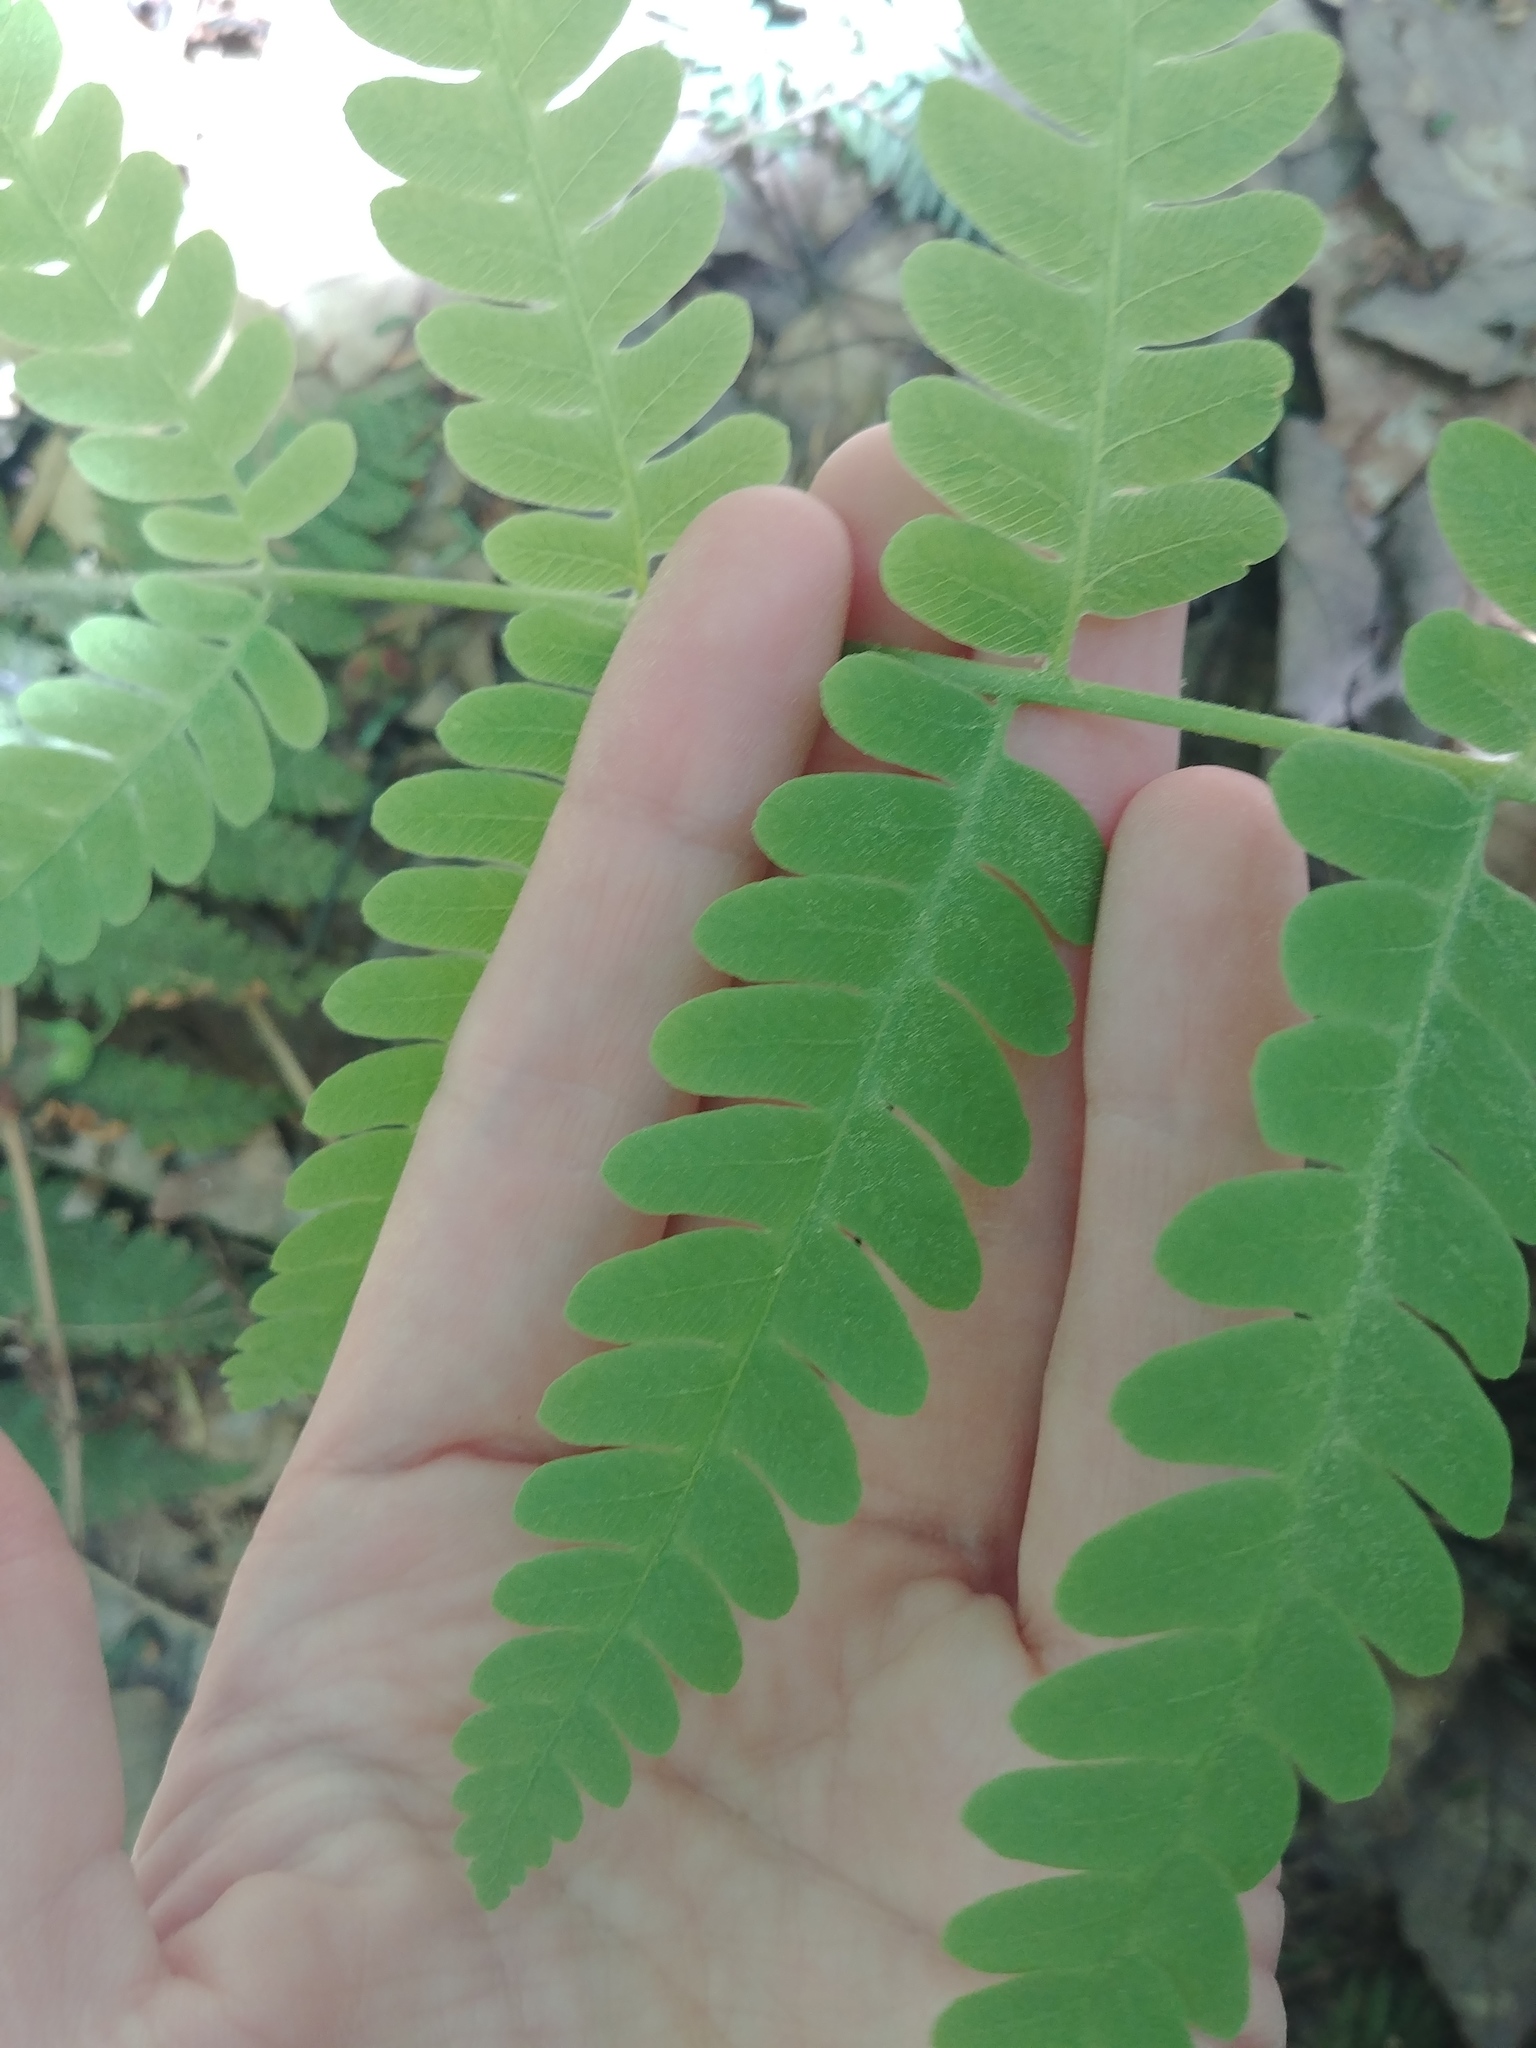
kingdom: Plantae
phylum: Tracheophyta
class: Polypodiopsida
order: Osmundales
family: Osmundaceae
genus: Claytosmunda
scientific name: Claytosmunda claytoniana
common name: Clayton's fern
